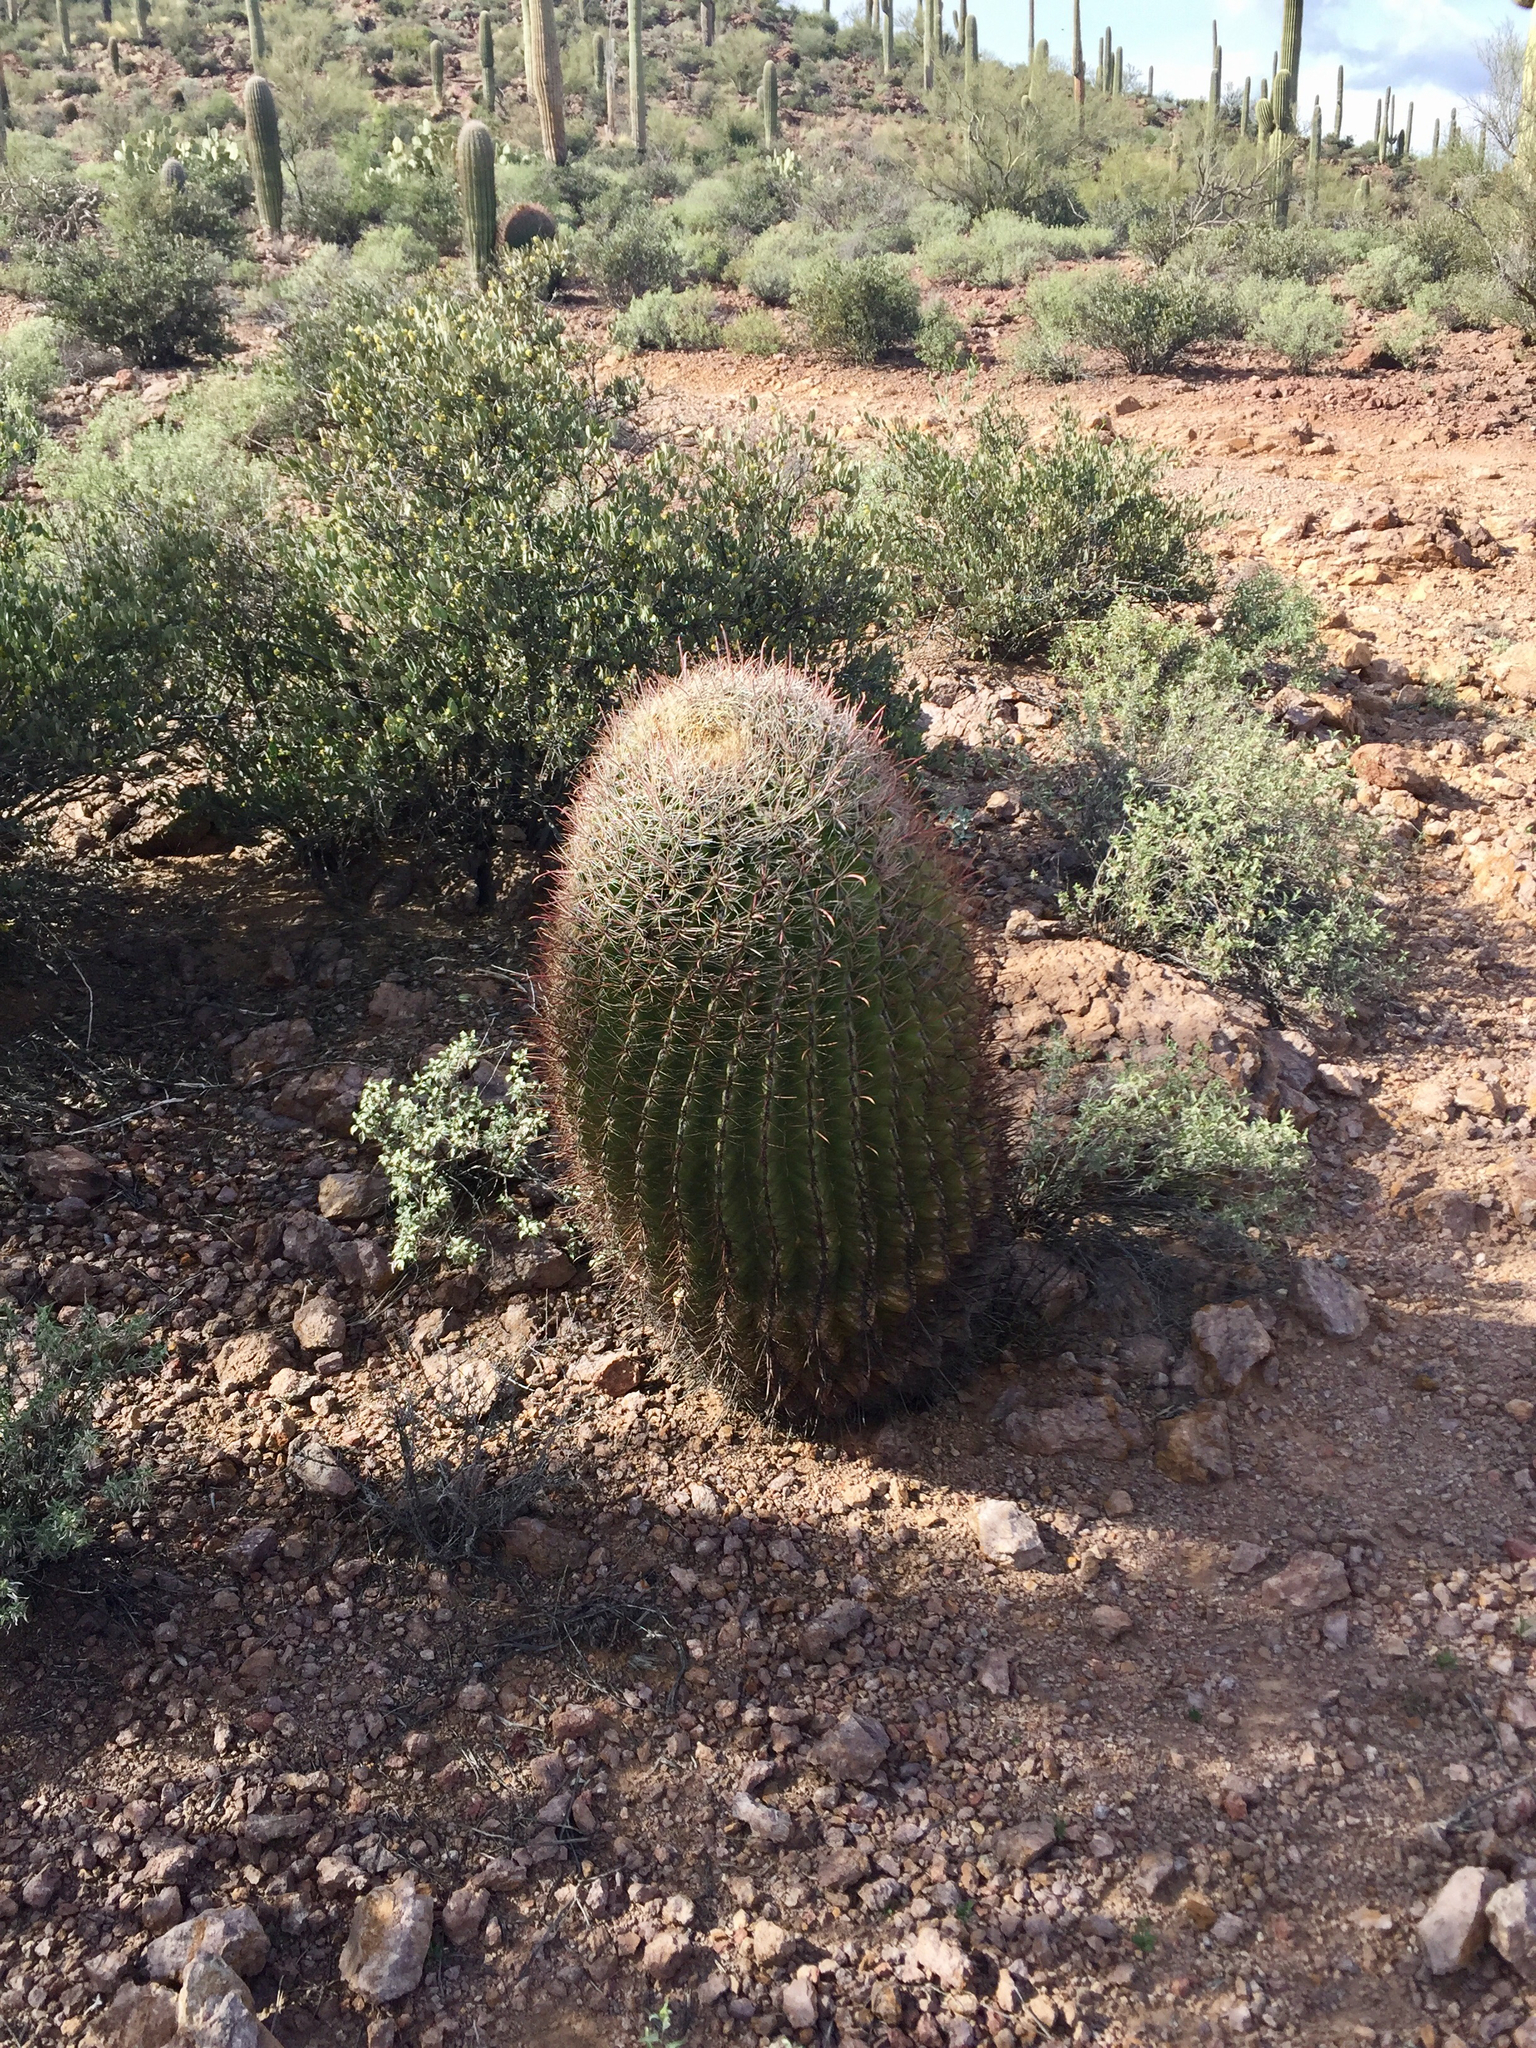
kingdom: Plantae
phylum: Tracheophyta
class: Magnoliopsida
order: Caryophyllales
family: Cactaceae
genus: Ferocactus
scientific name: Ferocactus wislizeni
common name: Candy barrel cactus
